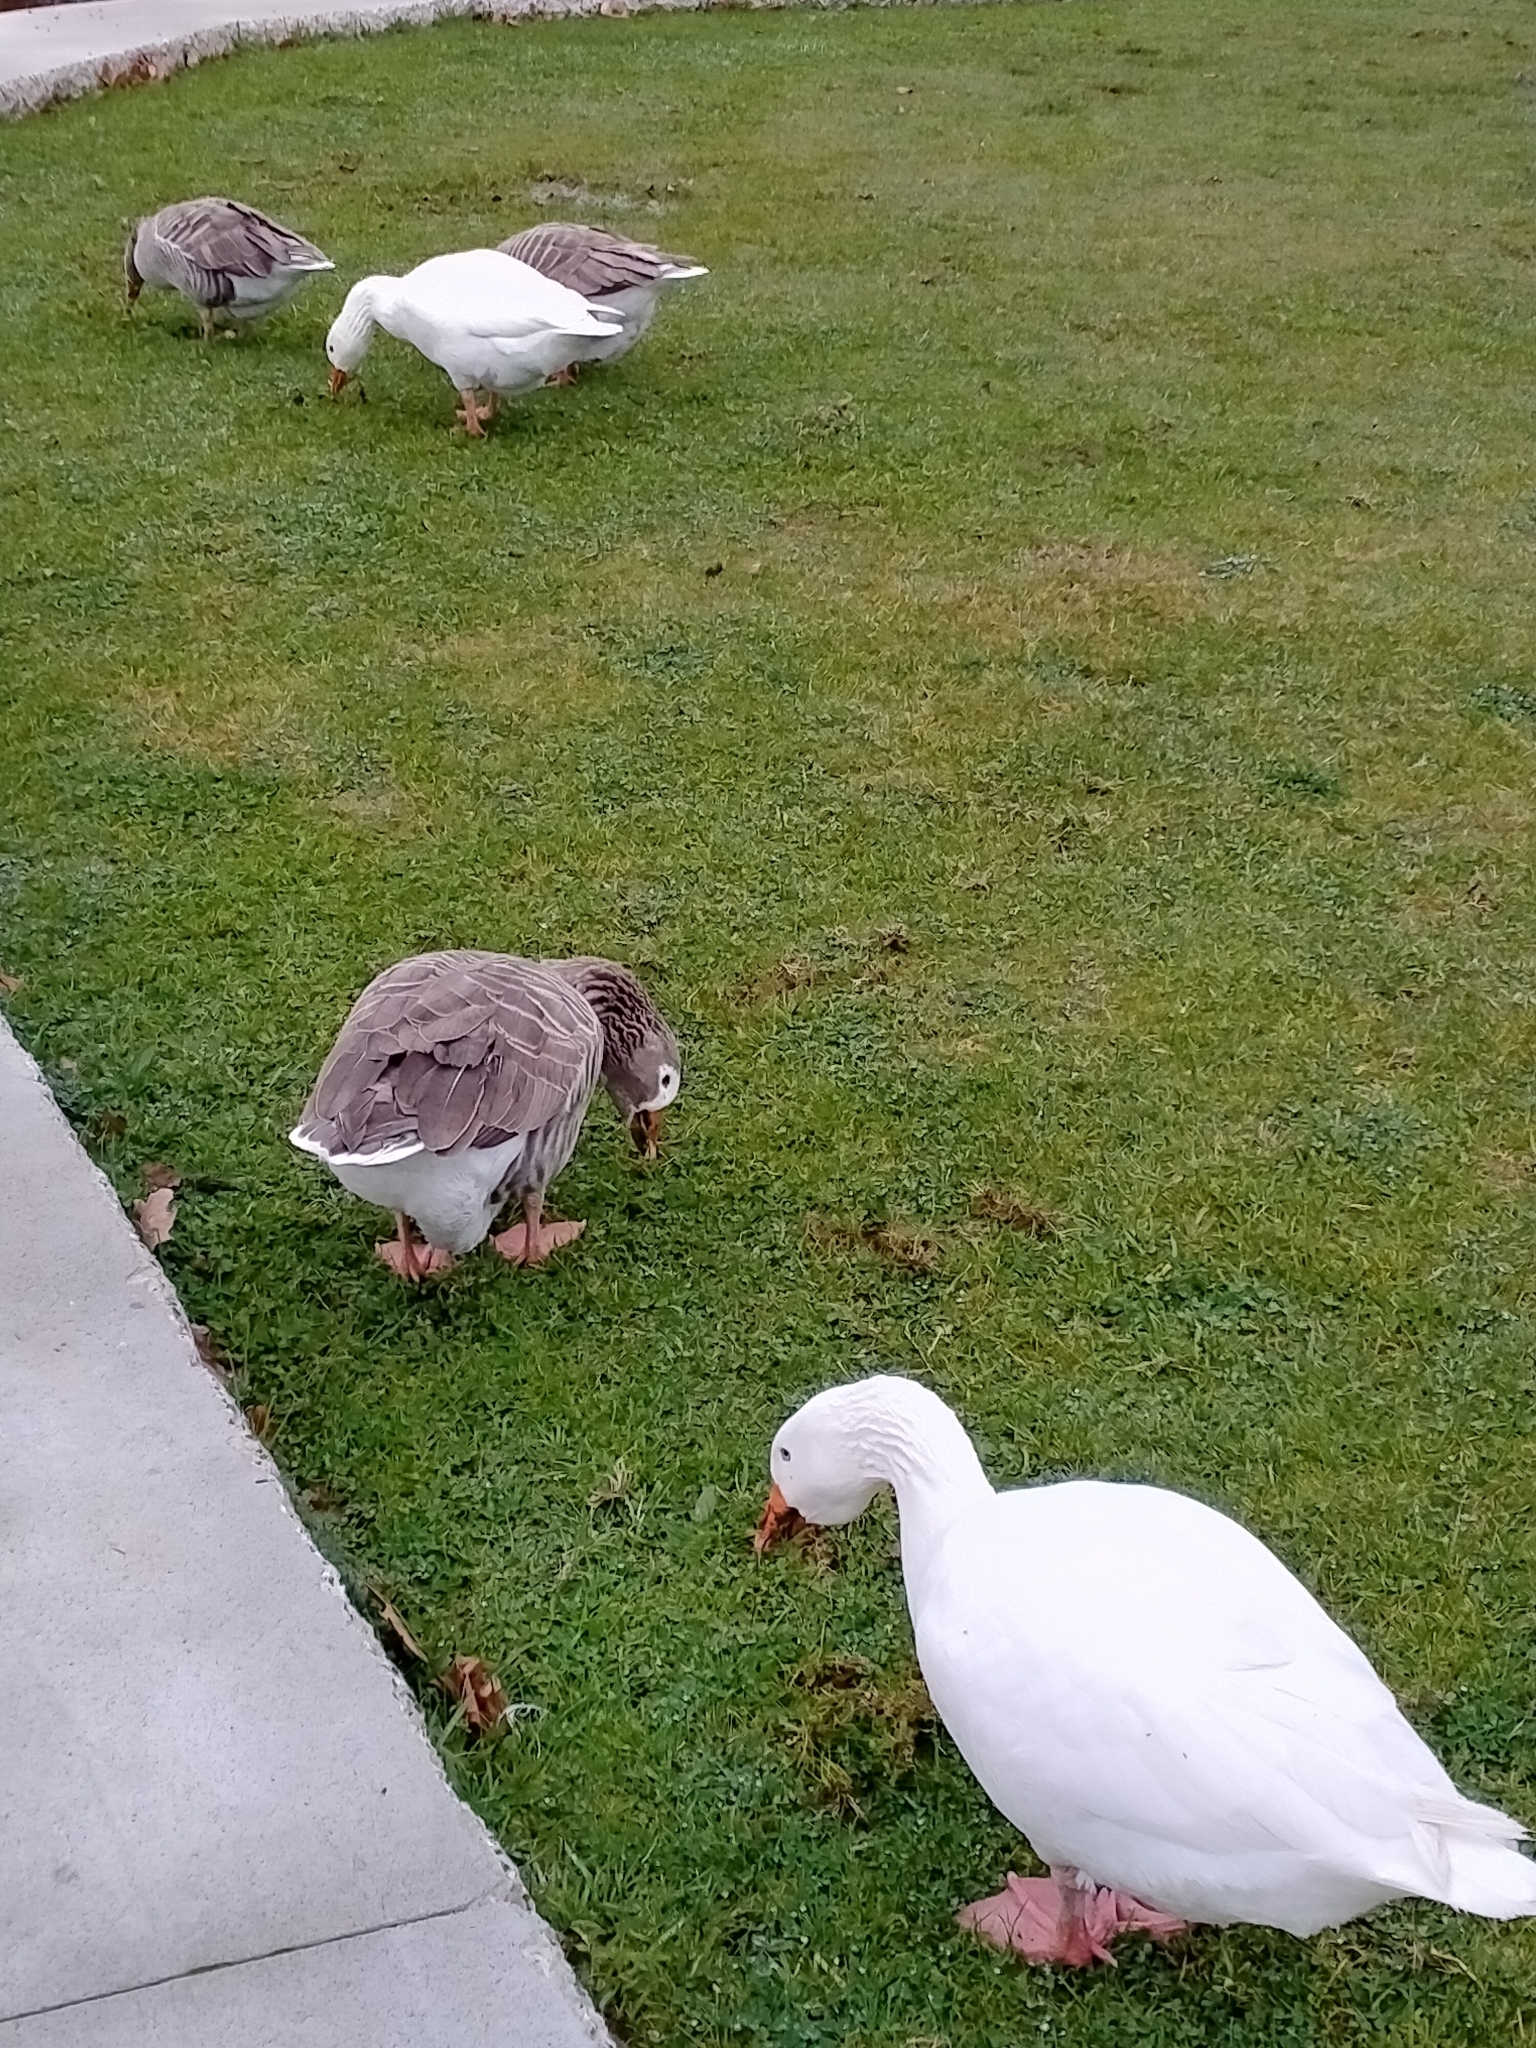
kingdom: Animalia
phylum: Chordata
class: Aves
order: Anseriformes
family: Anatidae
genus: Anser
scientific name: Anser anser
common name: Greylag goose
